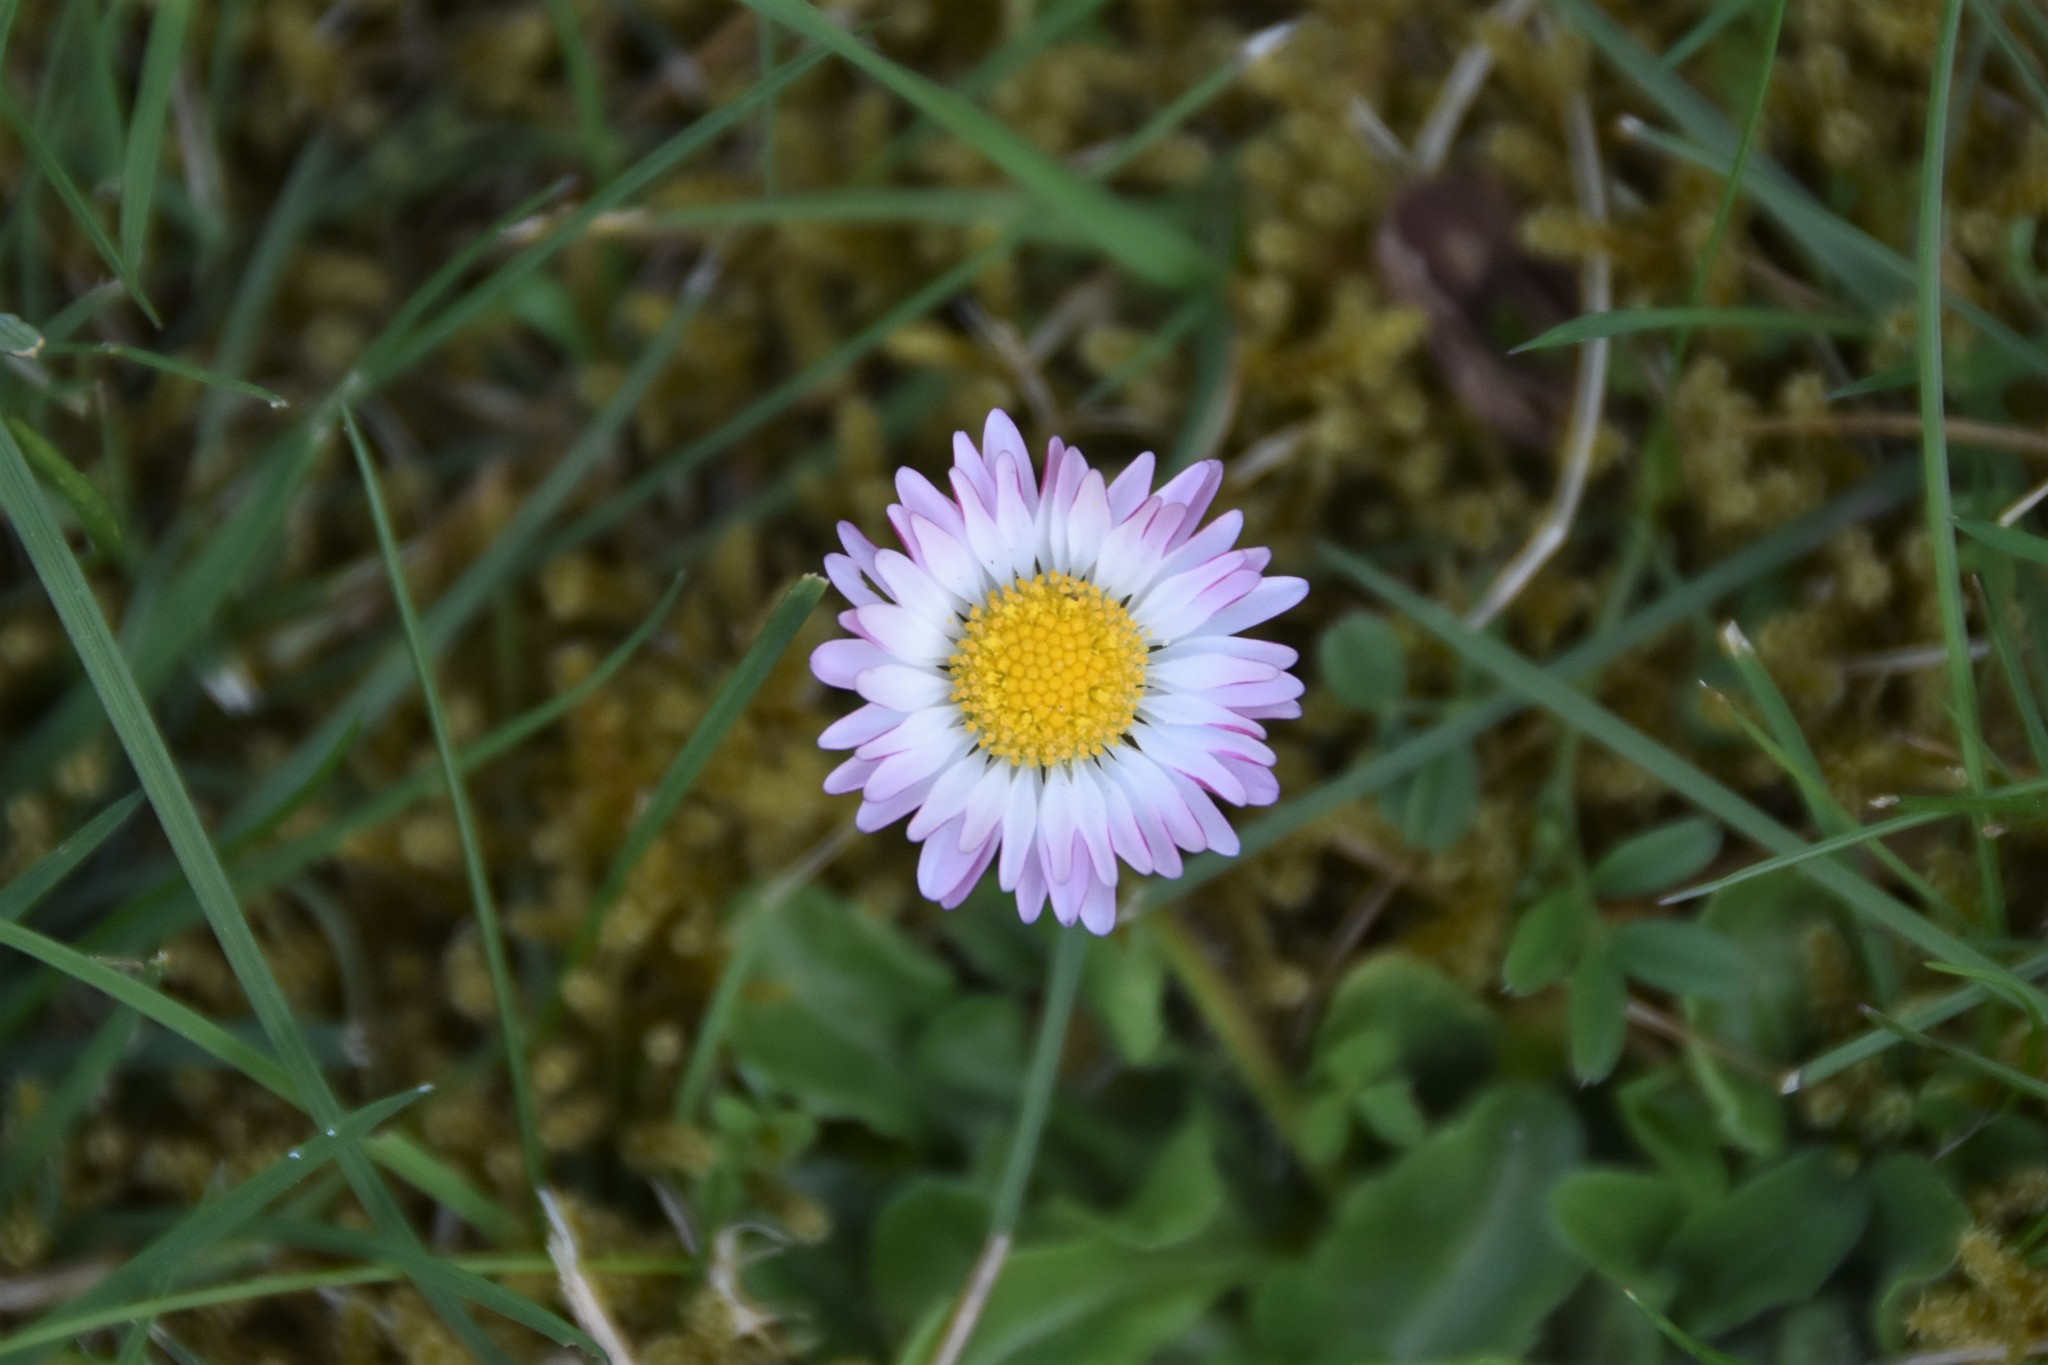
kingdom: Plantae
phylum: Tracheophyta
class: Magnoliopsida
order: Asterales
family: Asteraceae
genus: Bellis
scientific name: Bellis perennis
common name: Lawndaisy
